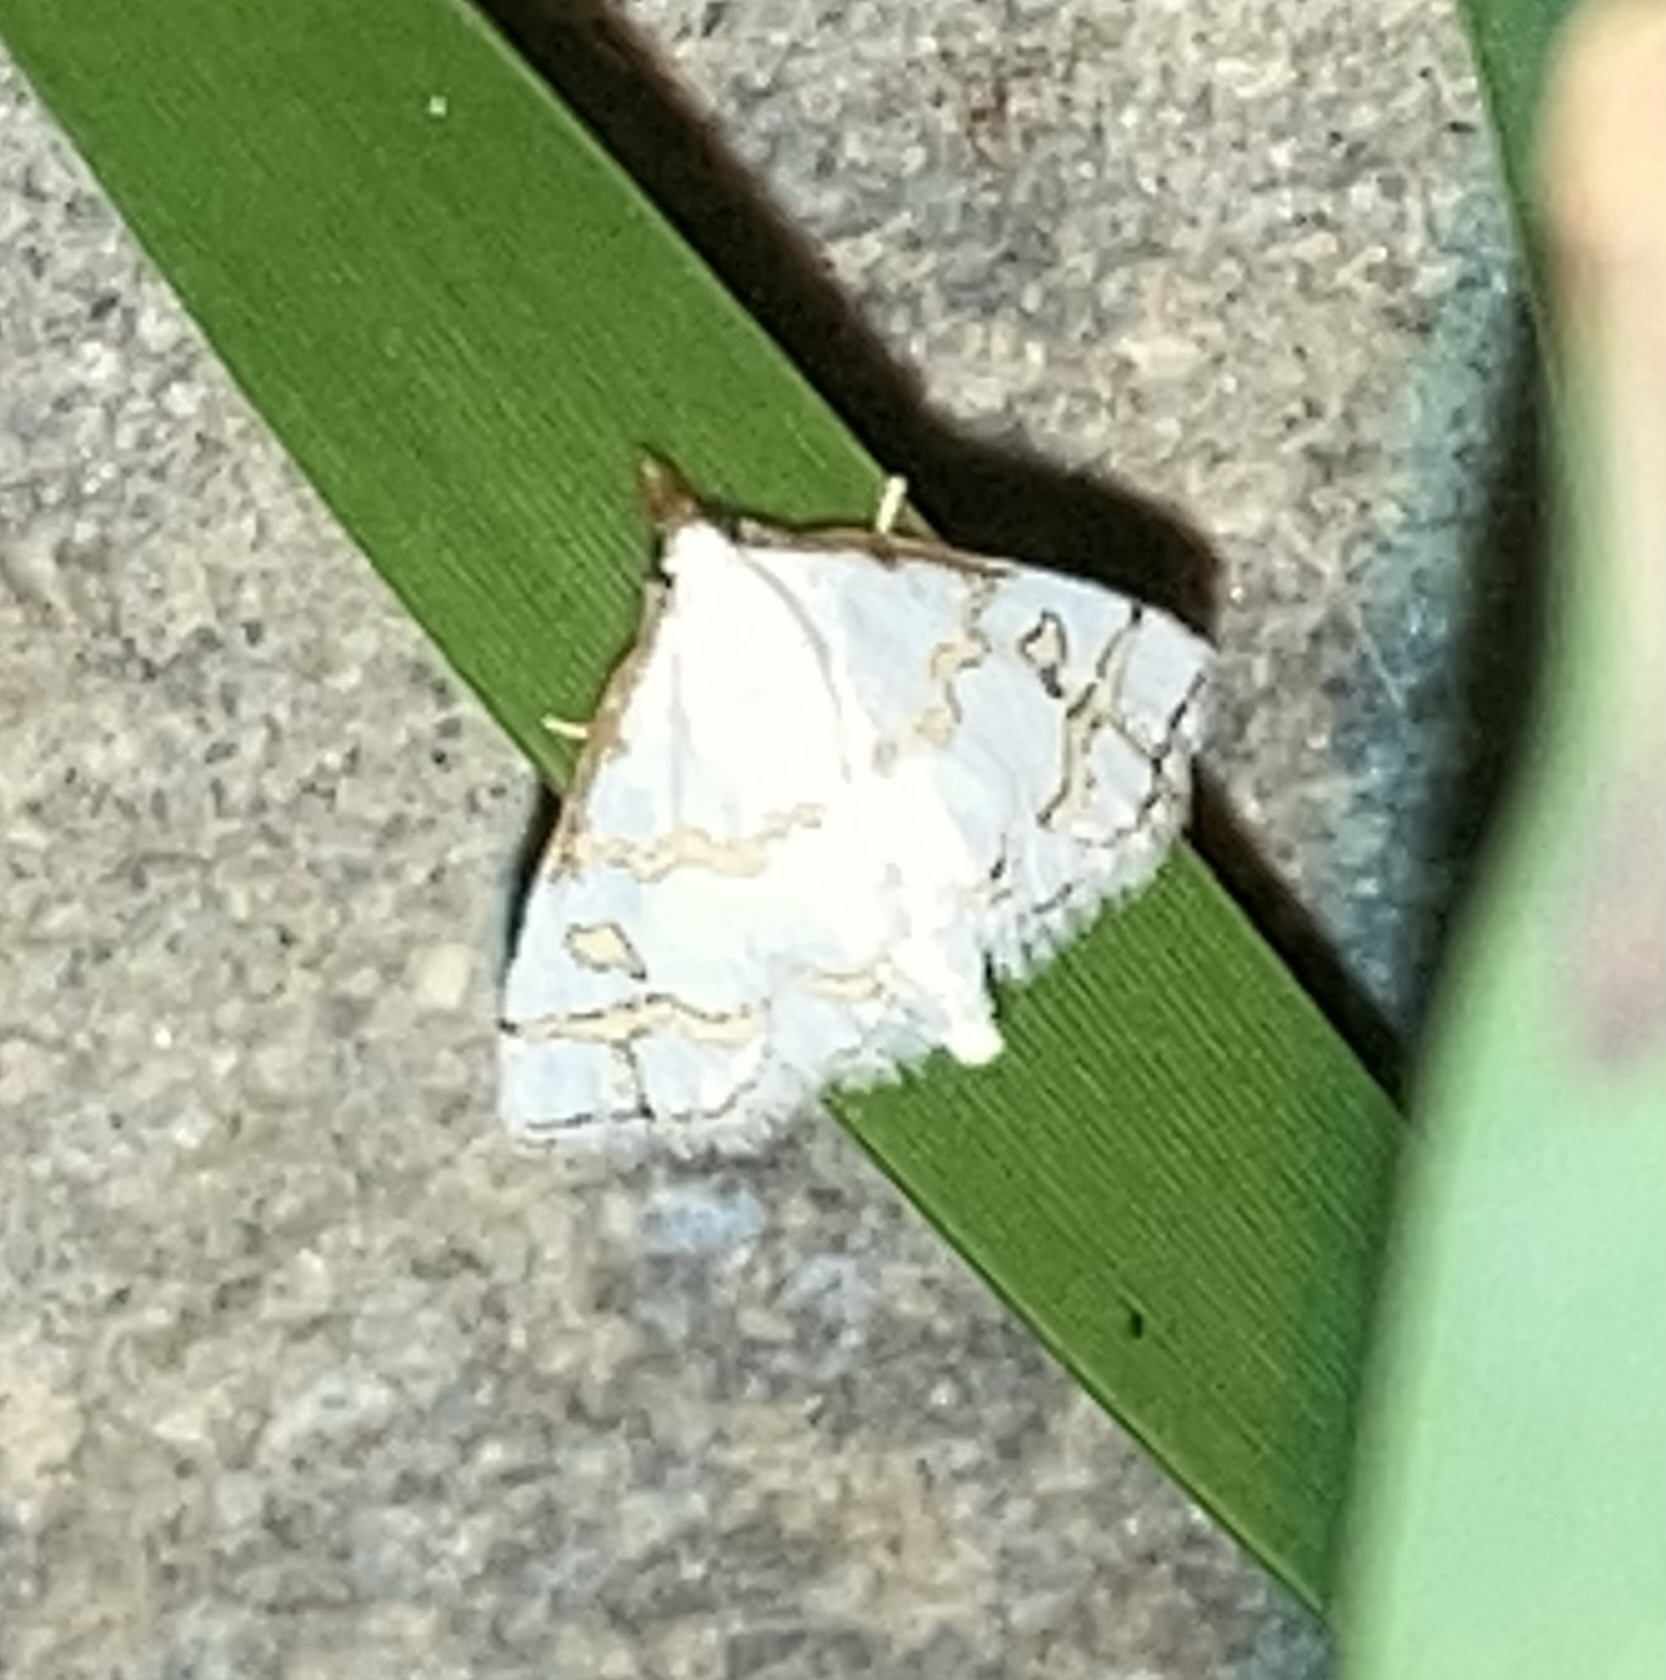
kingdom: Animalia
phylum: Arthropoda
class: Insecta
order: Lepidoptera
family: Crambidae
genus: Leptosteges
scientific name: Leptosteges
